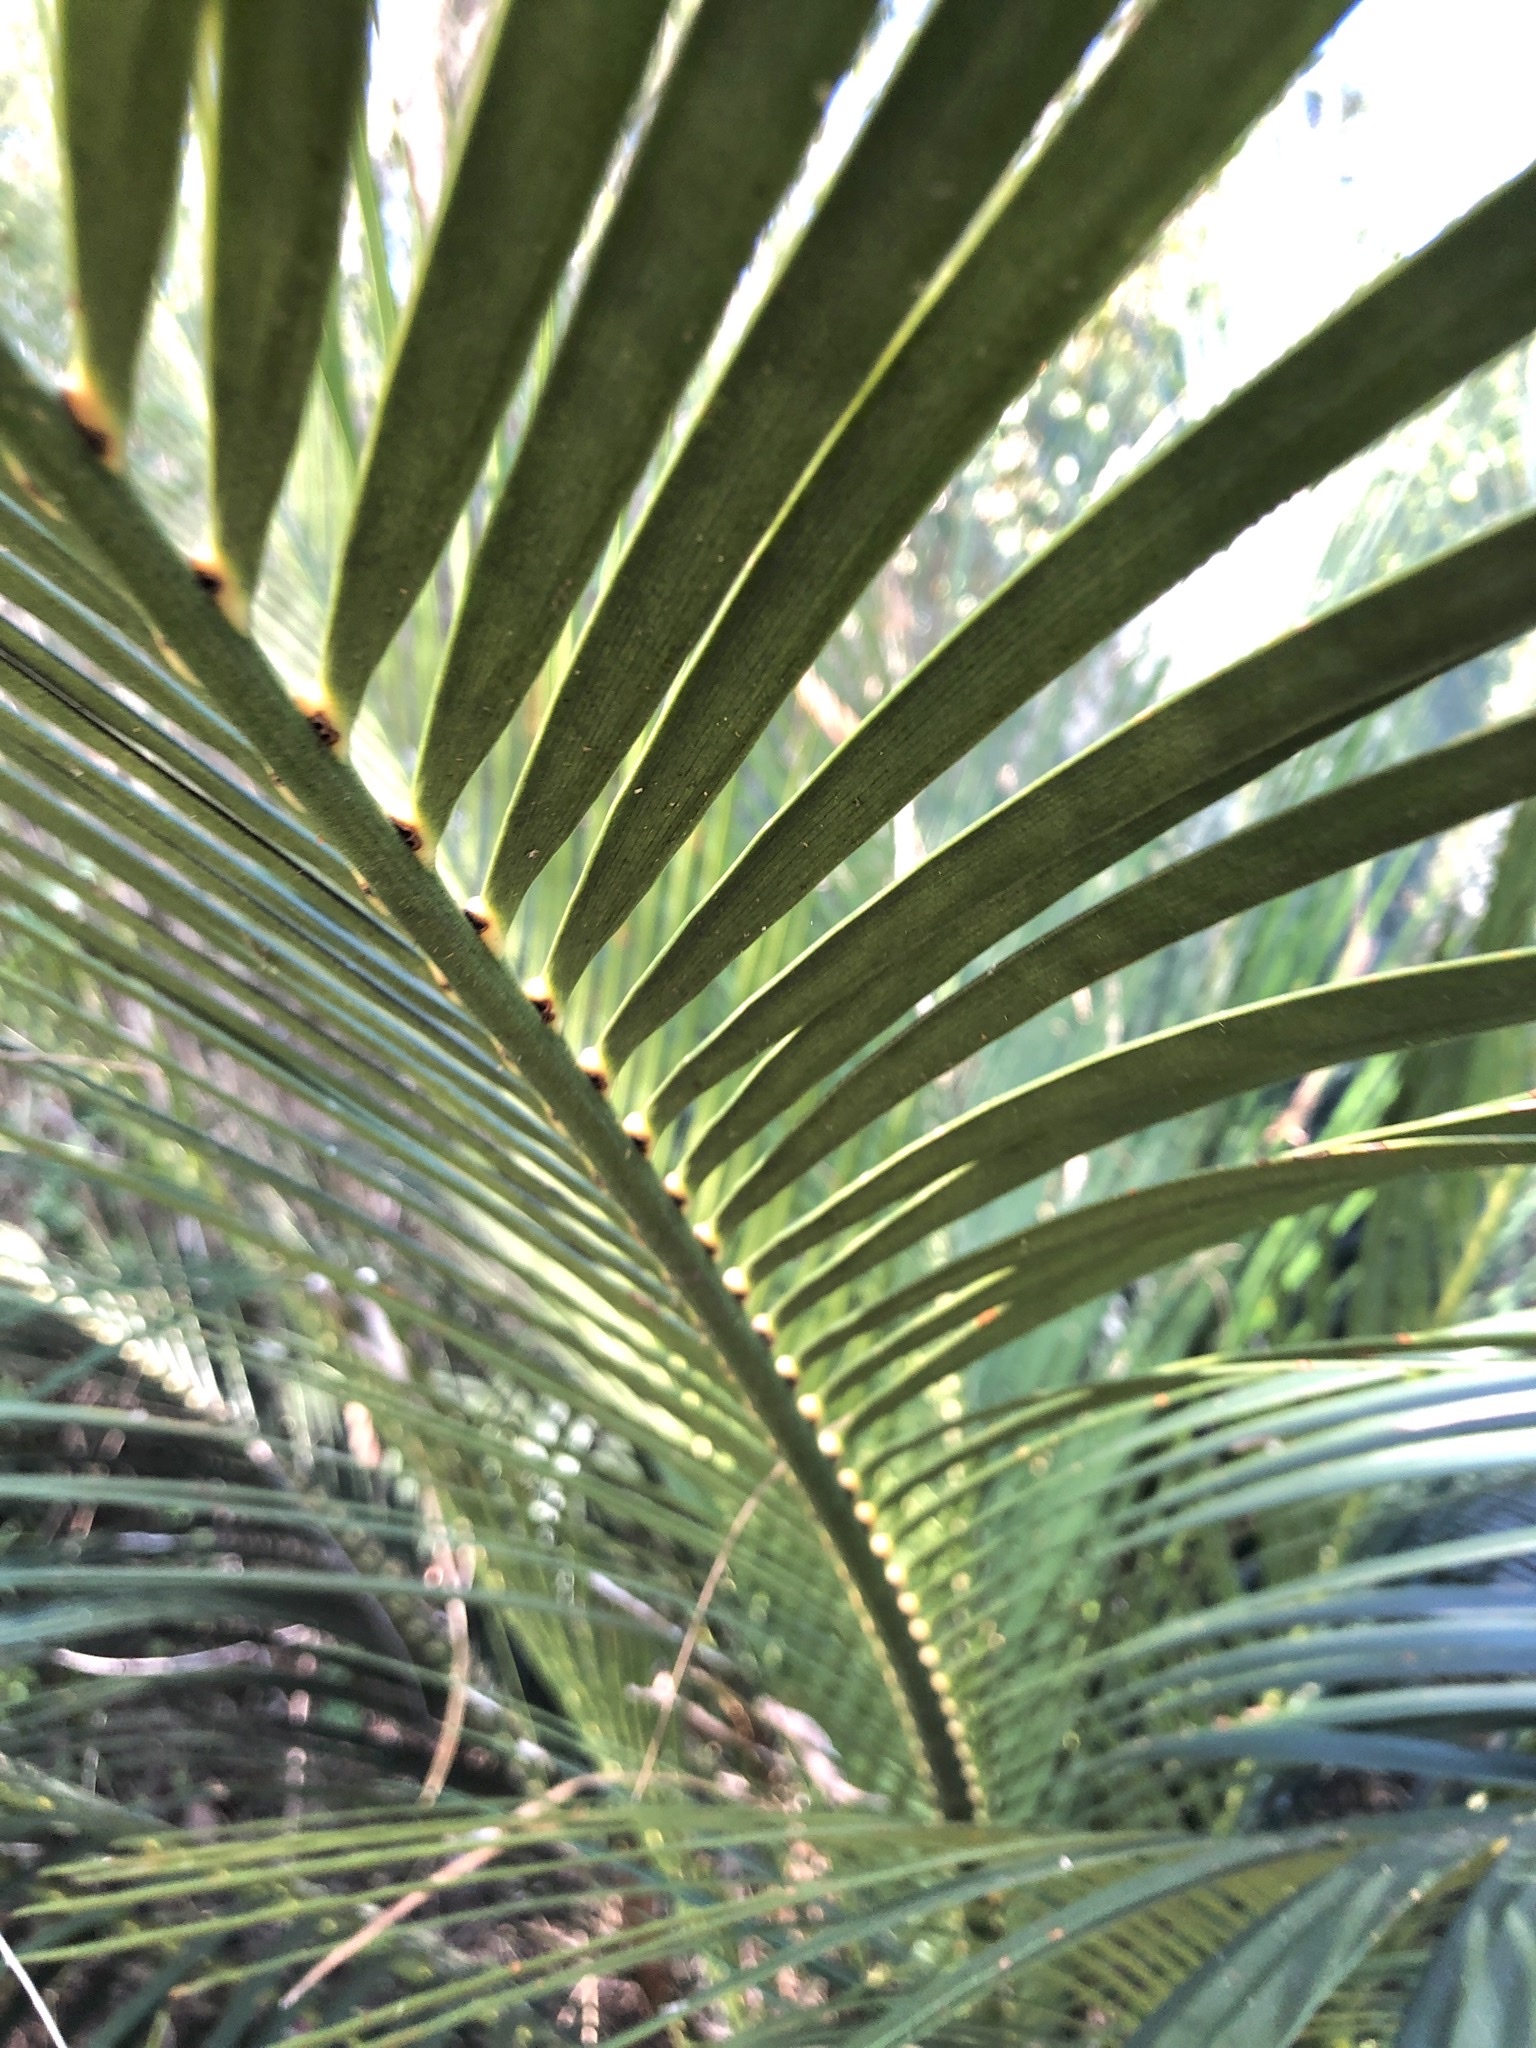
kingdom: Plantae
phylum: Tracheophyta
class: Cycadopsida
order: Cycadales
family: Zamiaceae
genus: Macrozamia
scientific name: Macrozamia miquelii
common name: Wild pineapple
